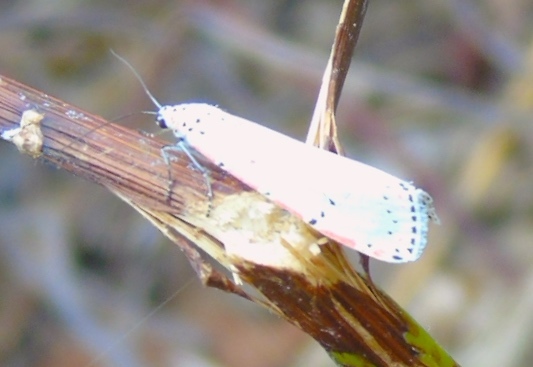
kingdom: Animalia
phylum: Arthropoda
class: Insecta
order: Lepidoptera
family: Erebidae
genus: Utetheisa
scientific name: Utetheisa ornatrix
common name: Beautiful utetheisa
